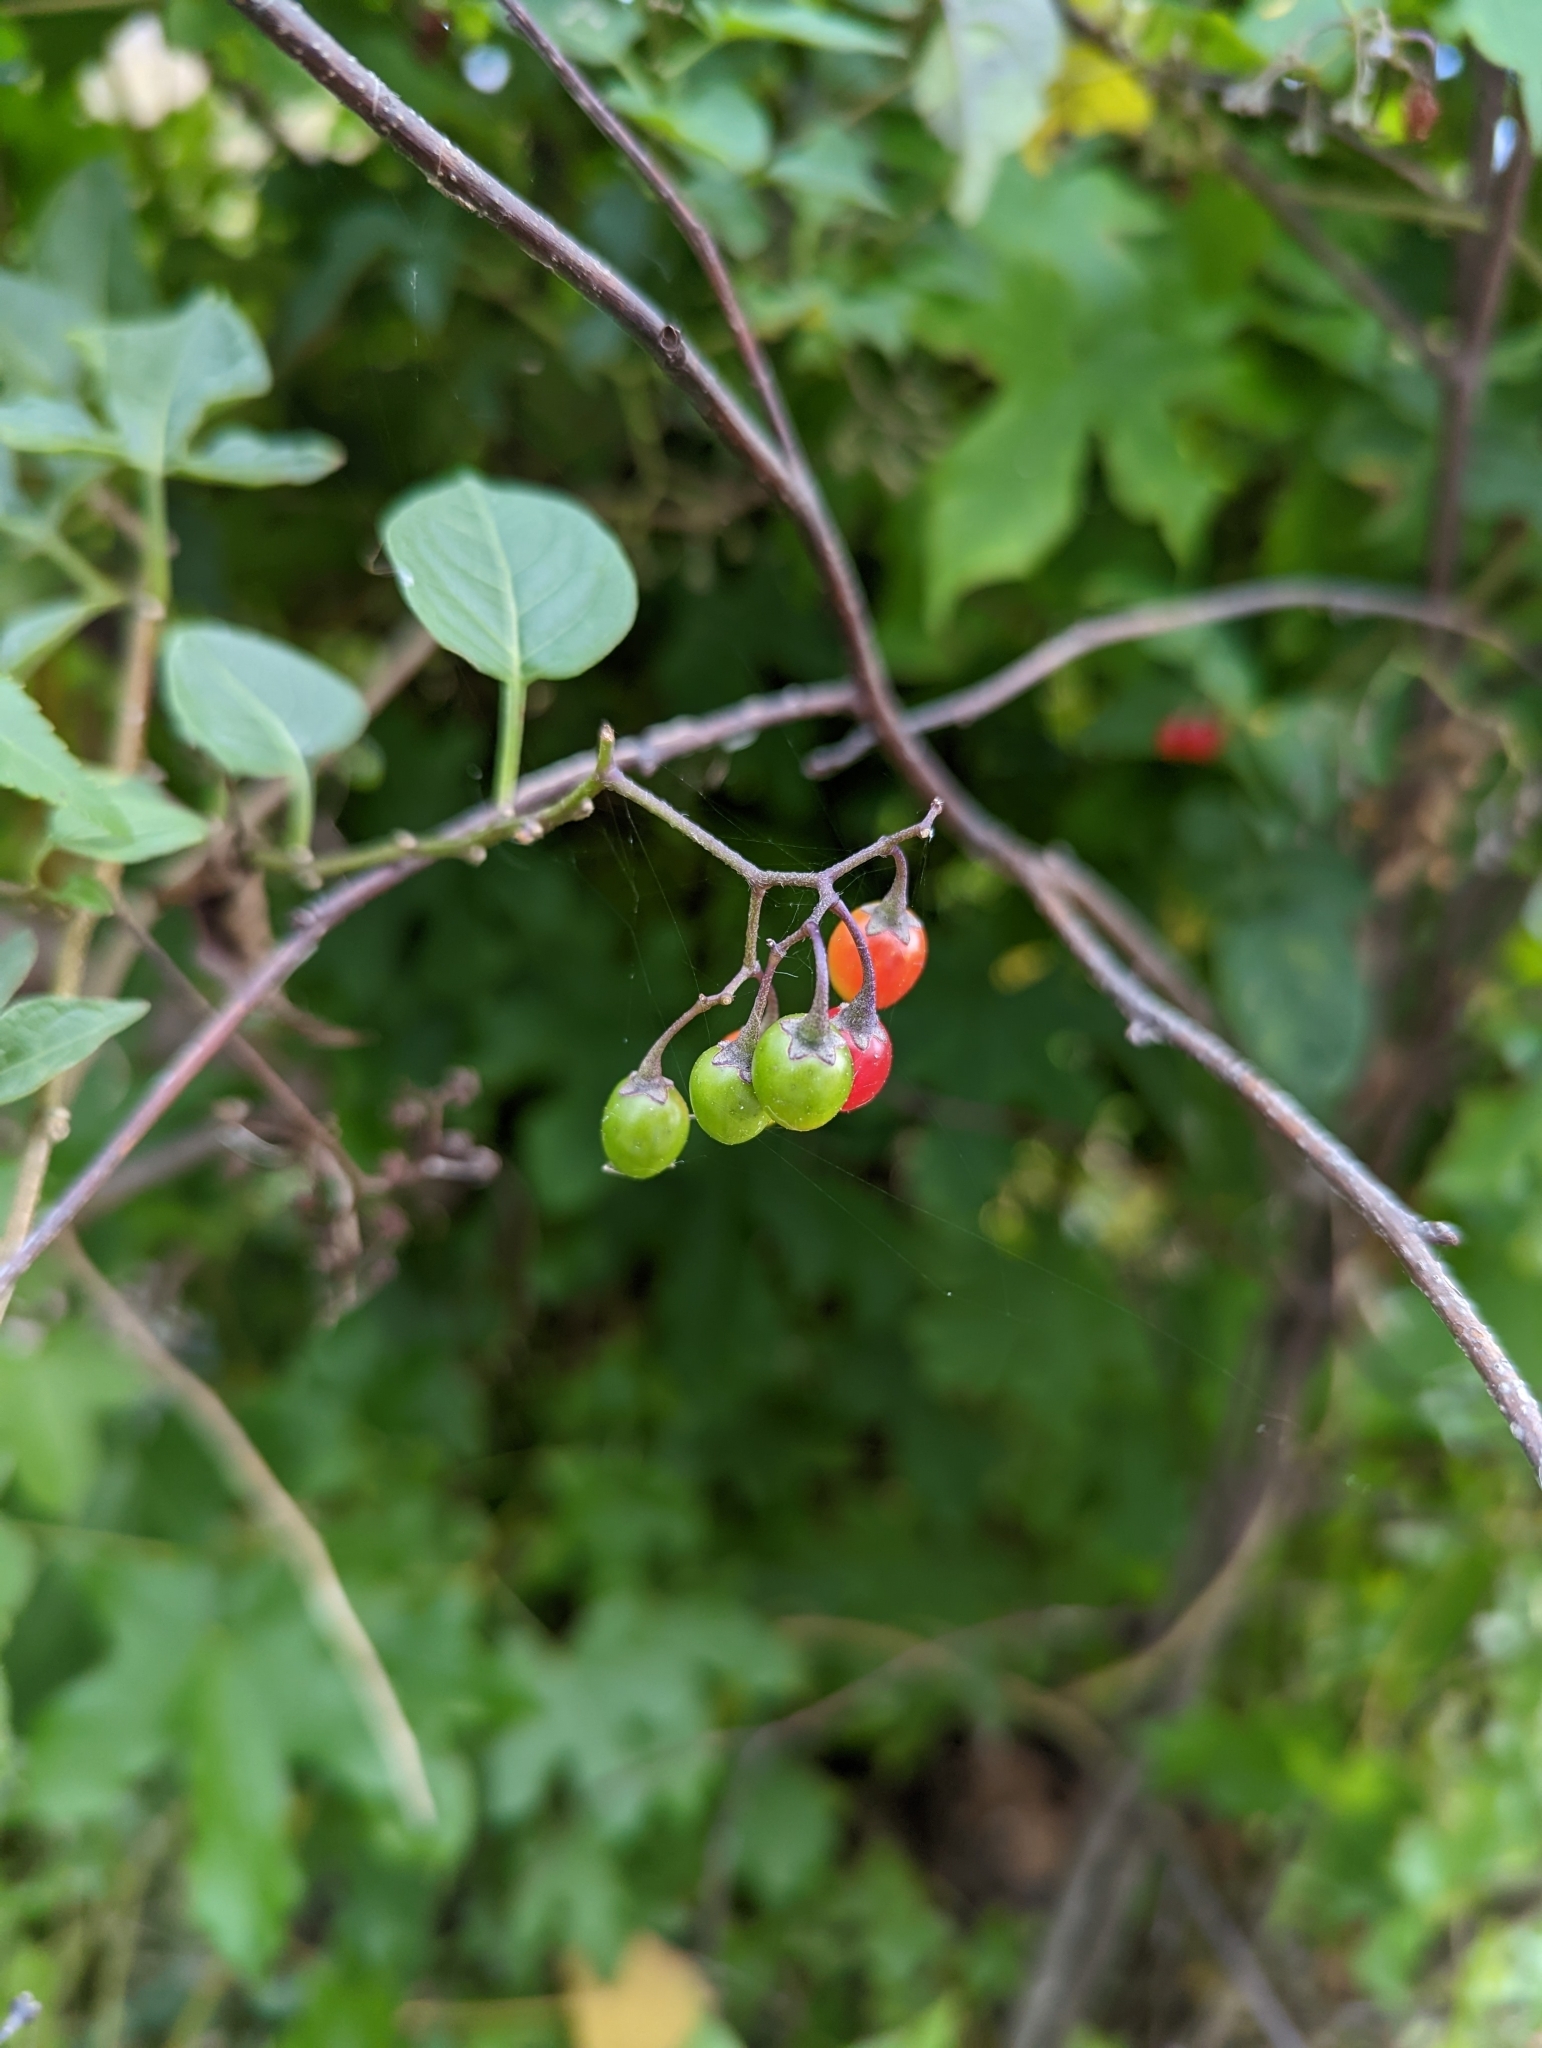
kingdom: Plantae
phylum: Tracheophyta
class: Magnoliopsida
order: Solanales
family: Solanaceae
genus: Solanum
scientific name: Solanum dulcamara
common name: Climbing nightshade
